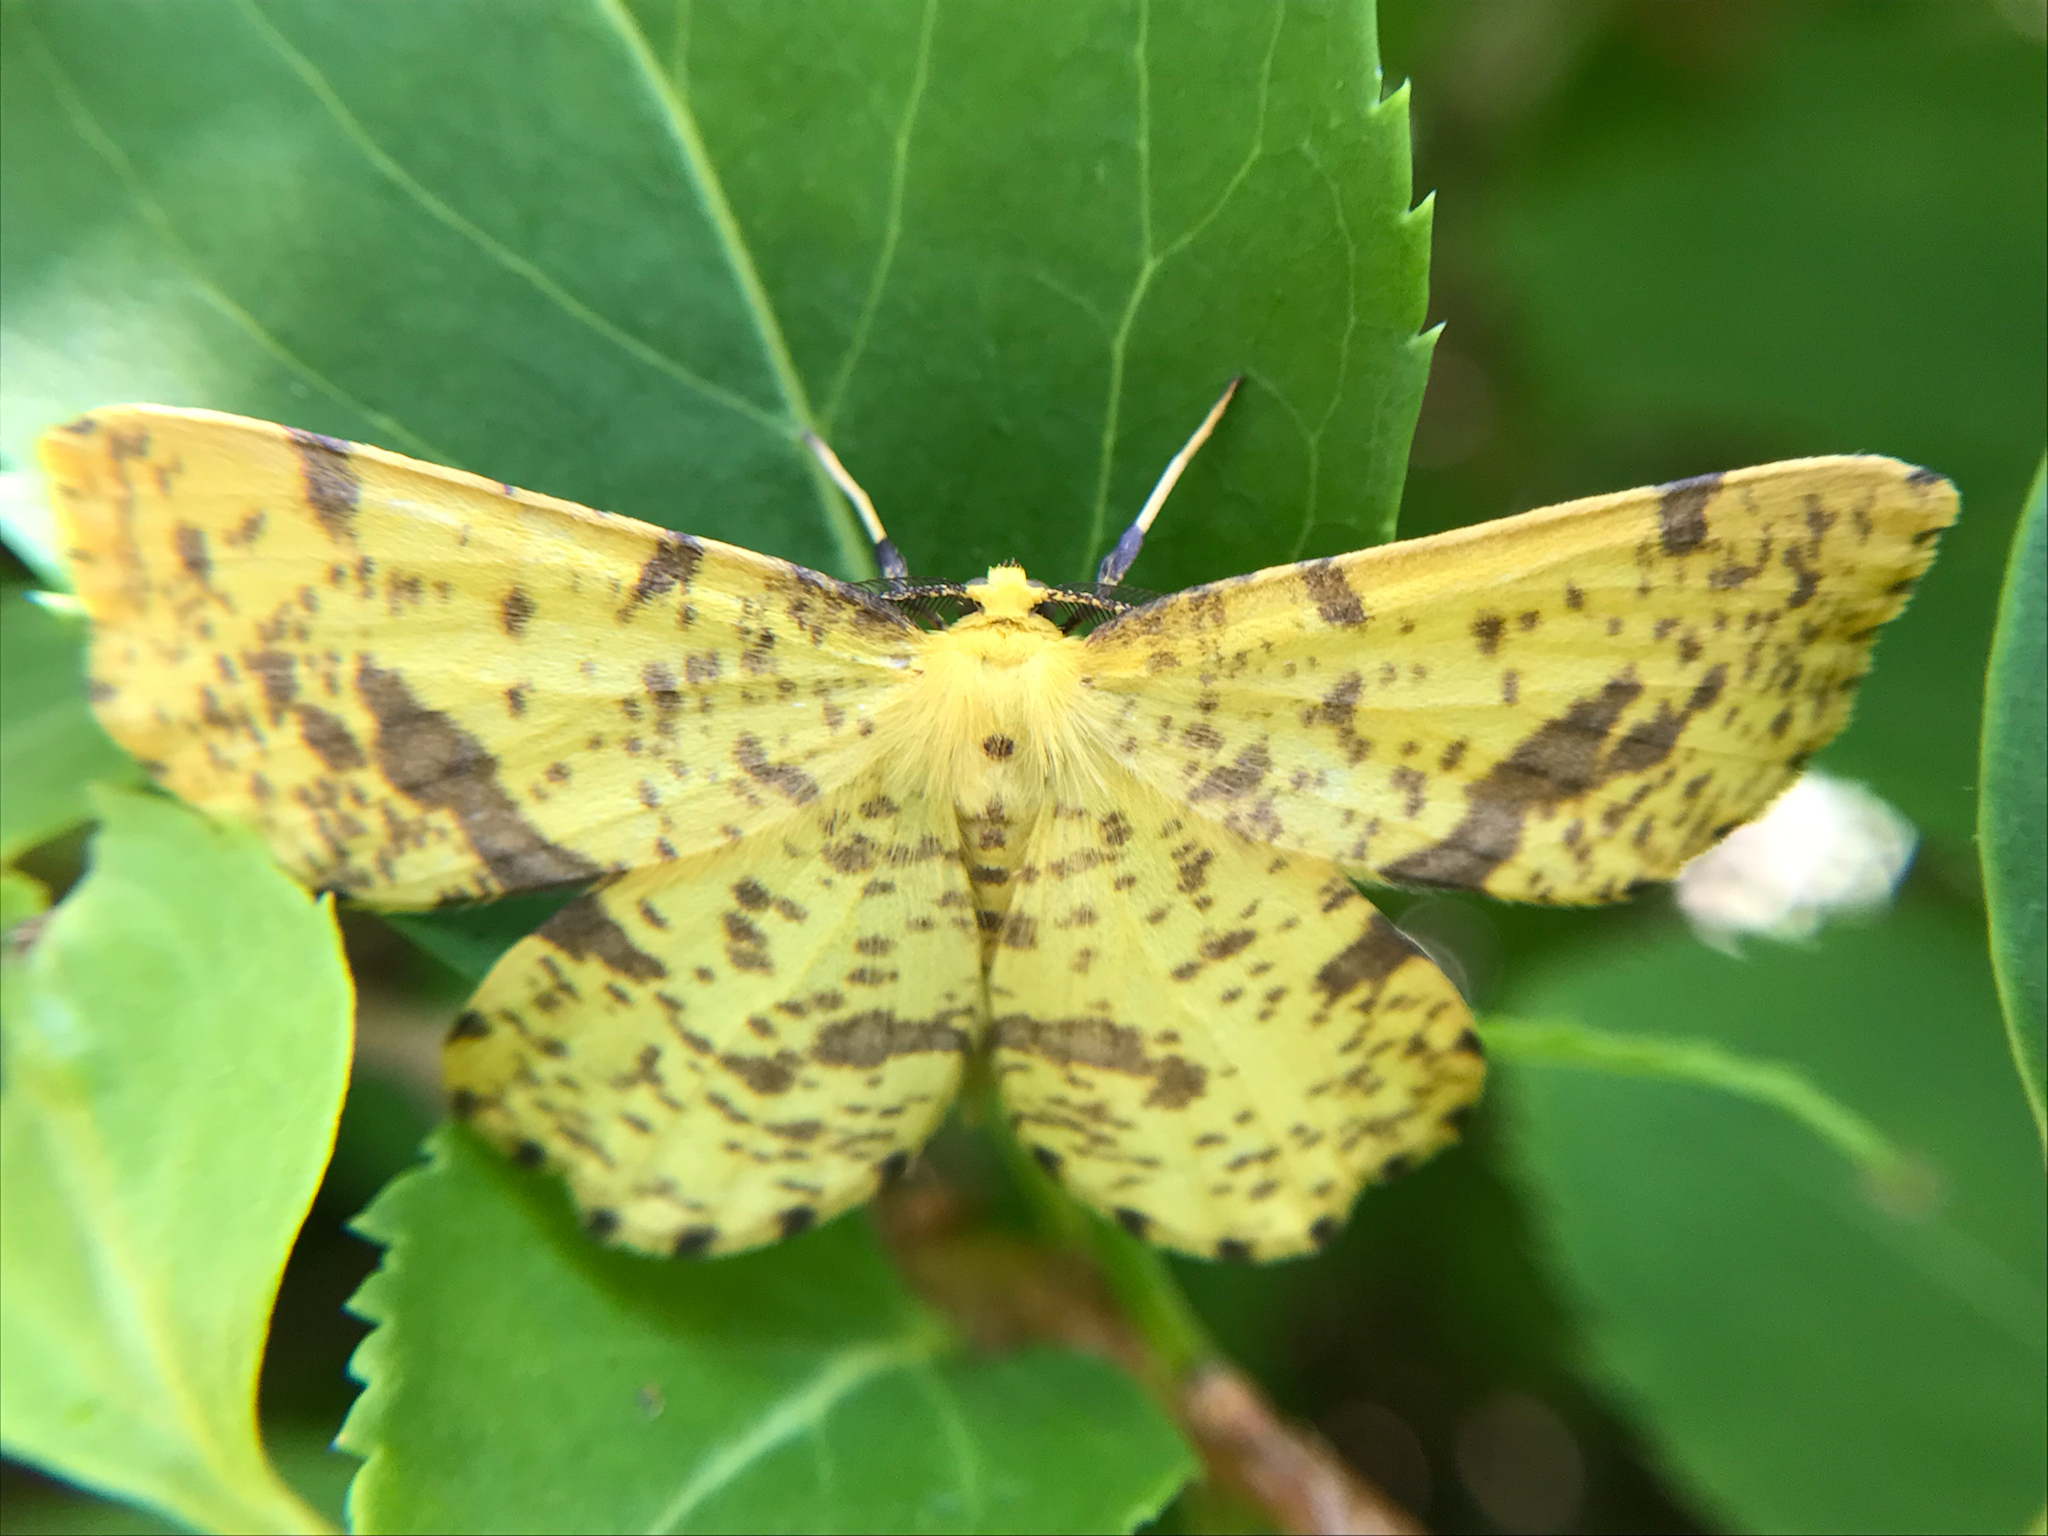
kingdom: Animalia
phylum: Arthropoda
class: Insecta
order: Lepidoptera
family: Geometridae
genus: Xanthotype
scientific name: Xanthotype
